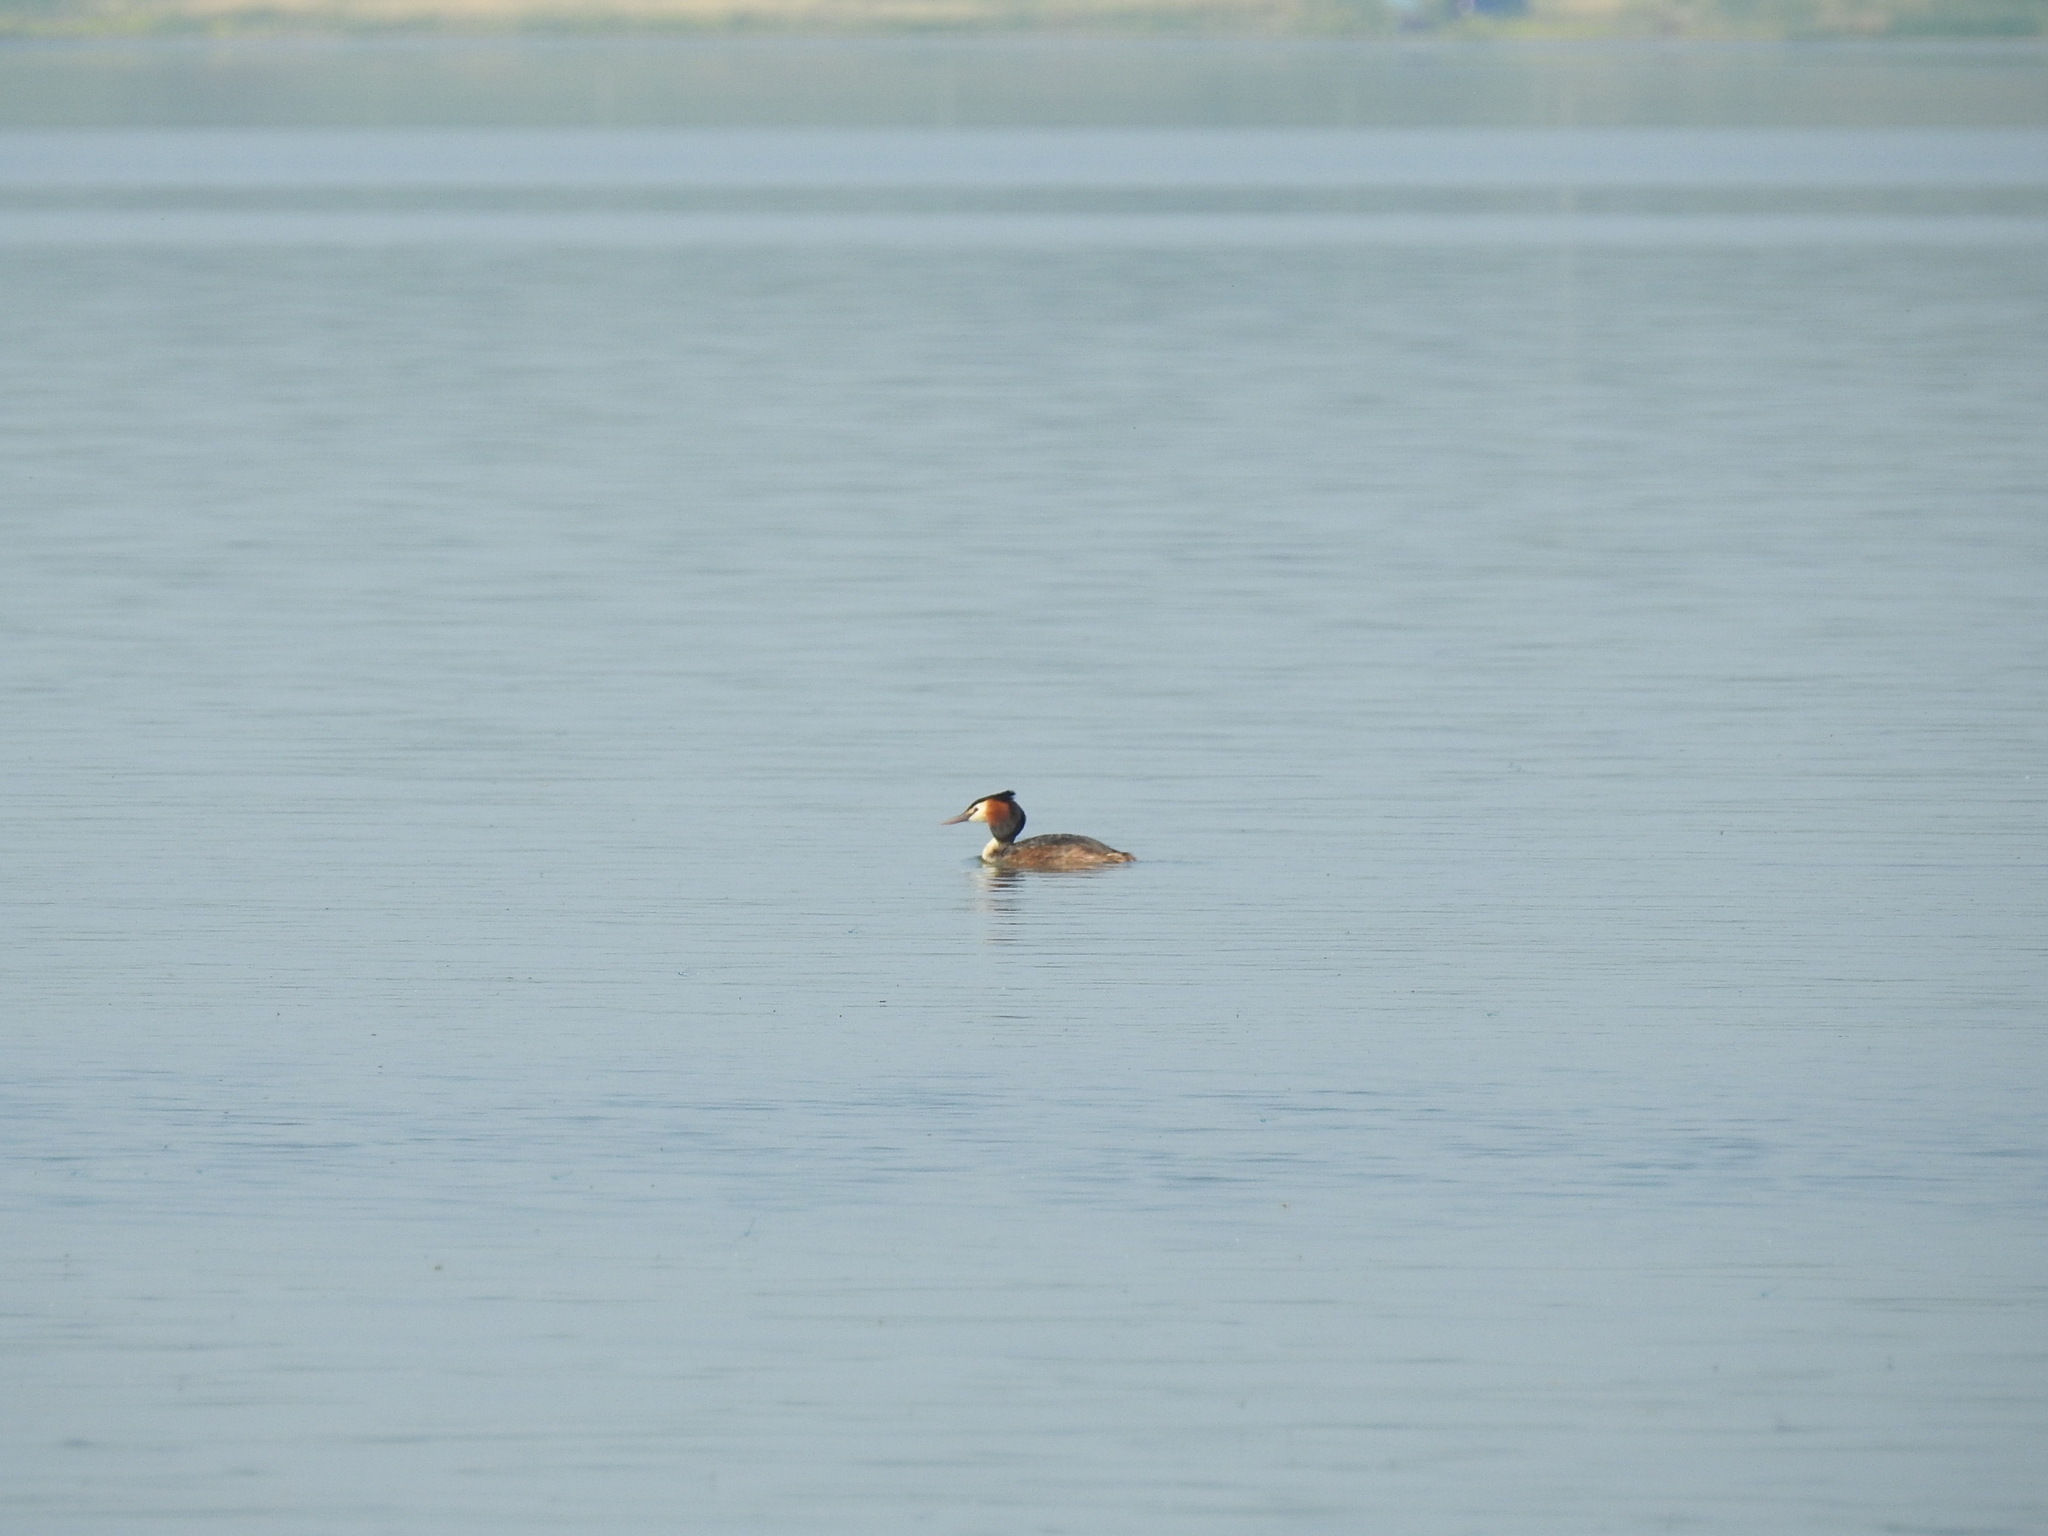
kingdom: Animalia
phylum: Chordata
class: Aves
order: Podicipediformes
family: Podicipedidae
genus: Podiceps
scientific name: Podiceps cristatus
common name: Great crested grebe
